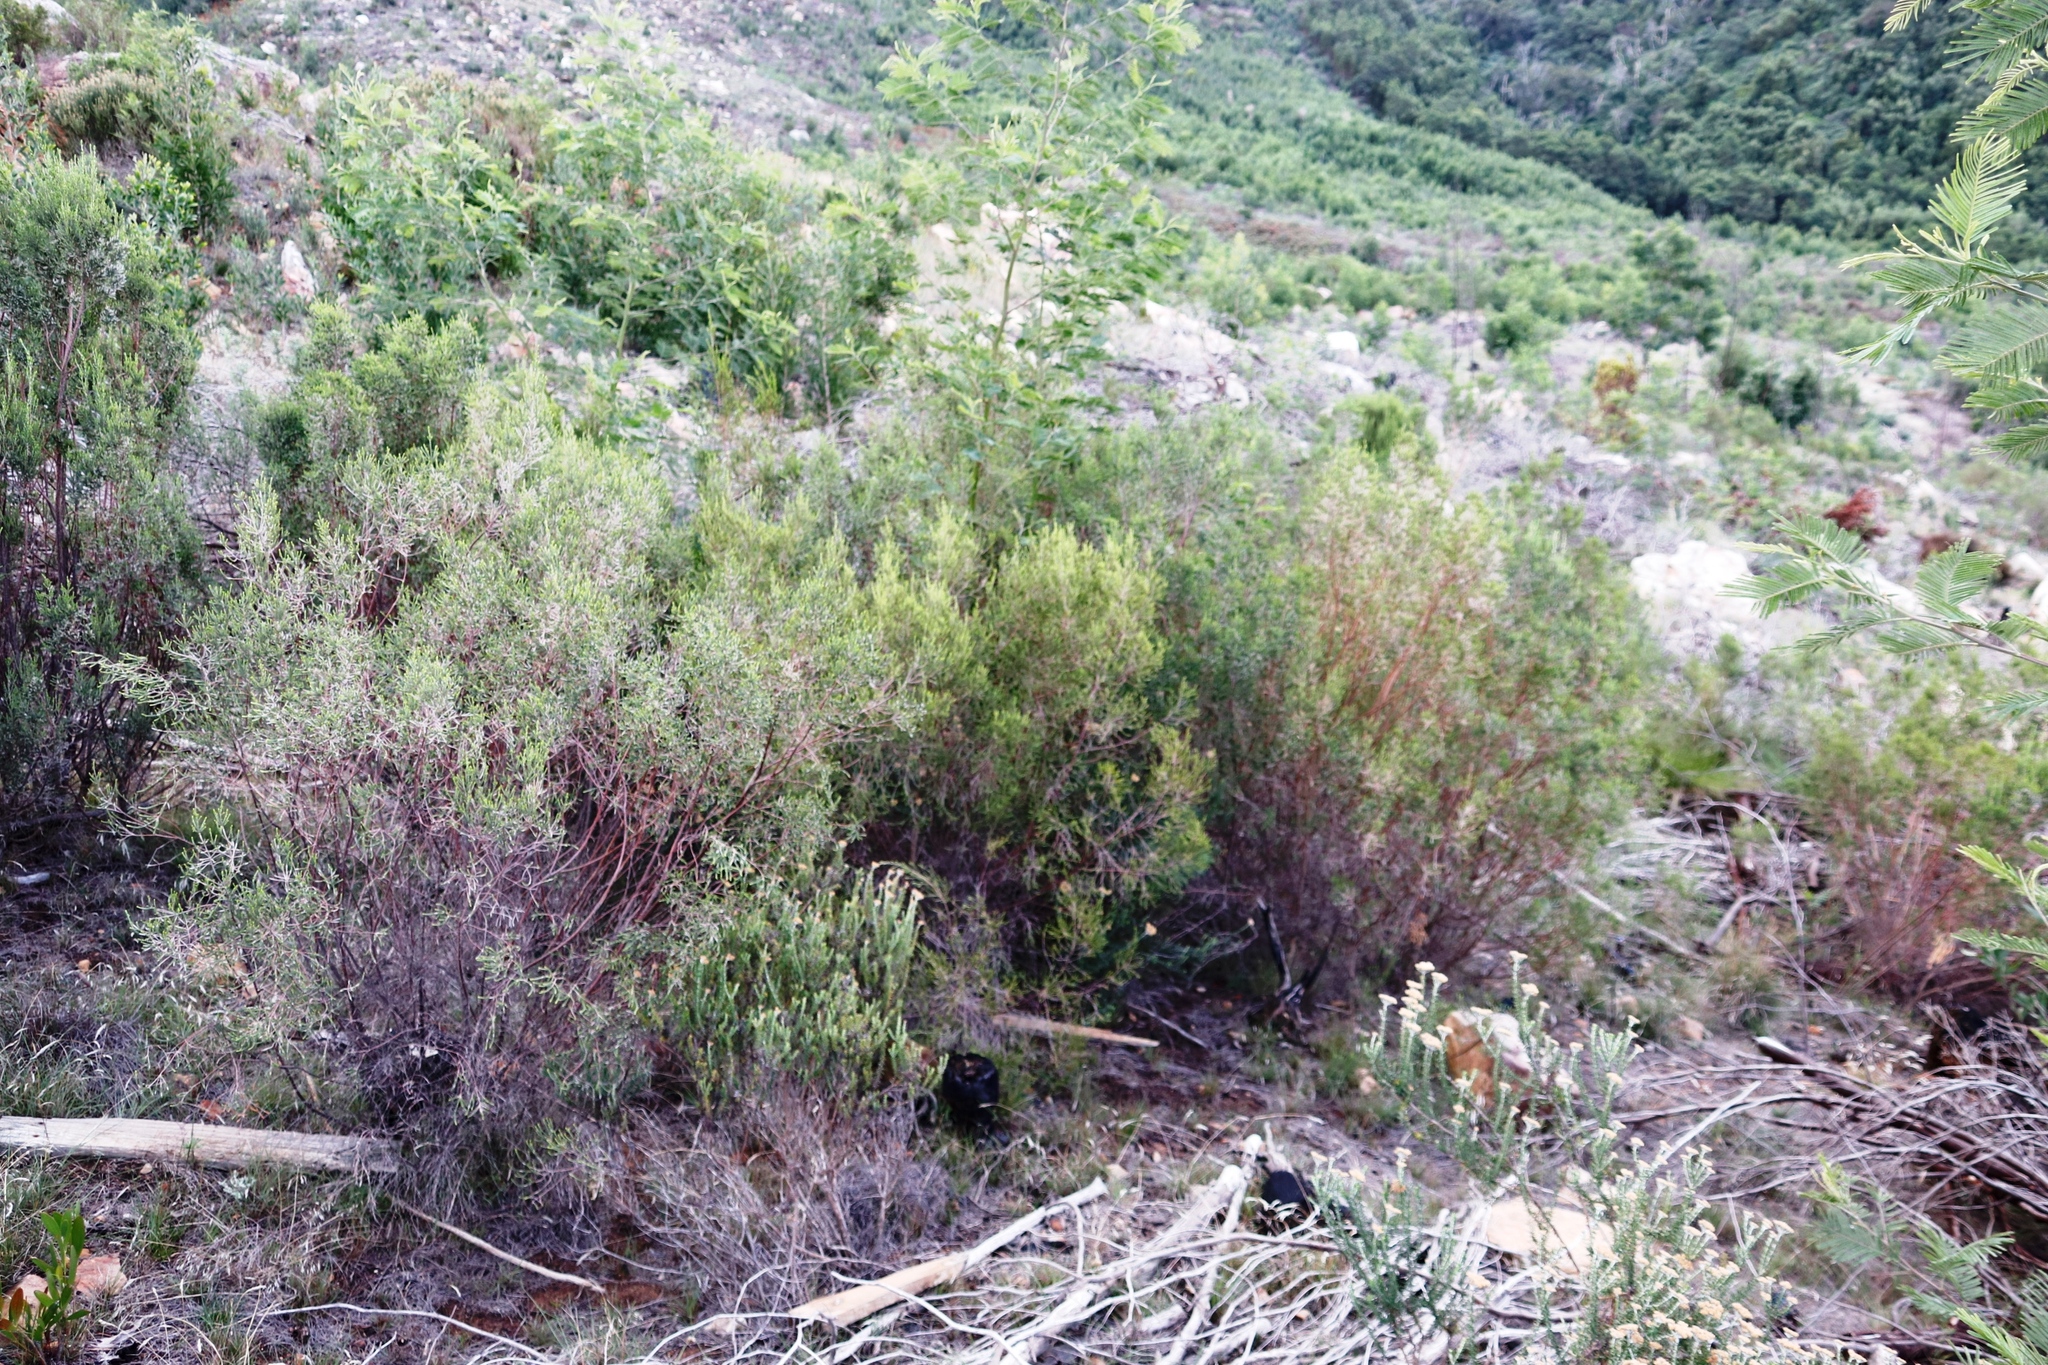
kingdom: Plantae
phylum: Tracheophyta
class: Magnoliopsida
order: Proteales
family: Proteaceae
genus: Leucadendron
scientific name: Leucadendron xanthoconus
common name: Sickle-leaf conebush
